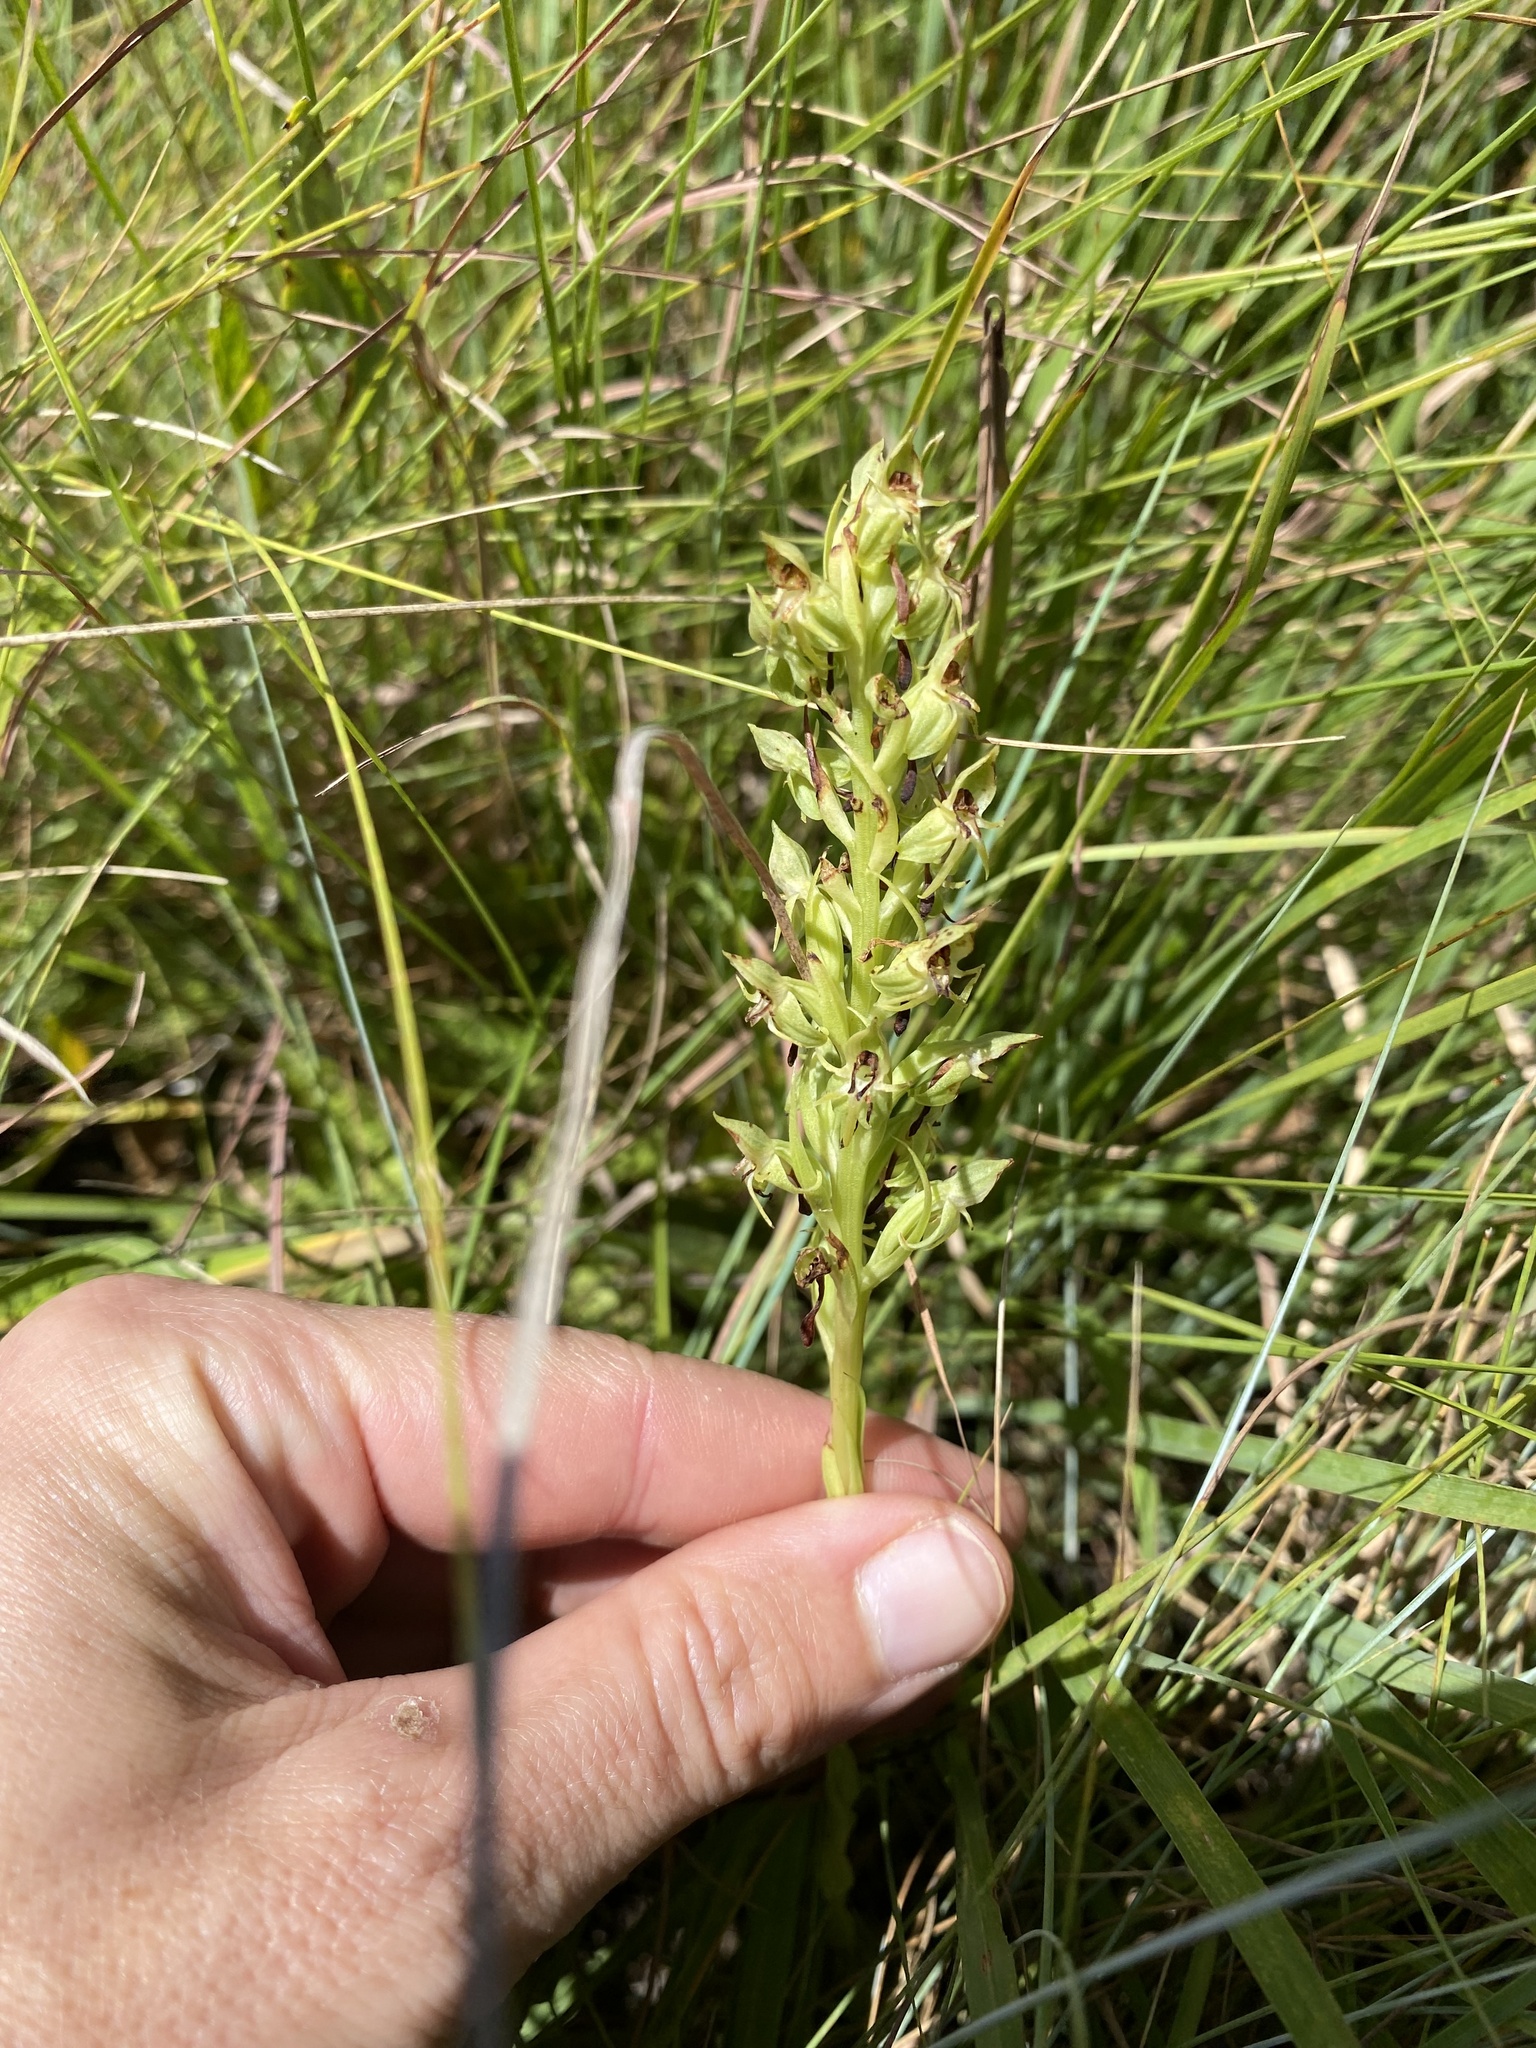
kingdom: Plantae
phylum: Tracheophyta
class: Liliopsida
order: Asparagales
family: Orchidaceae
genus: Habenaria
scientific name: Habenaria dregeana
